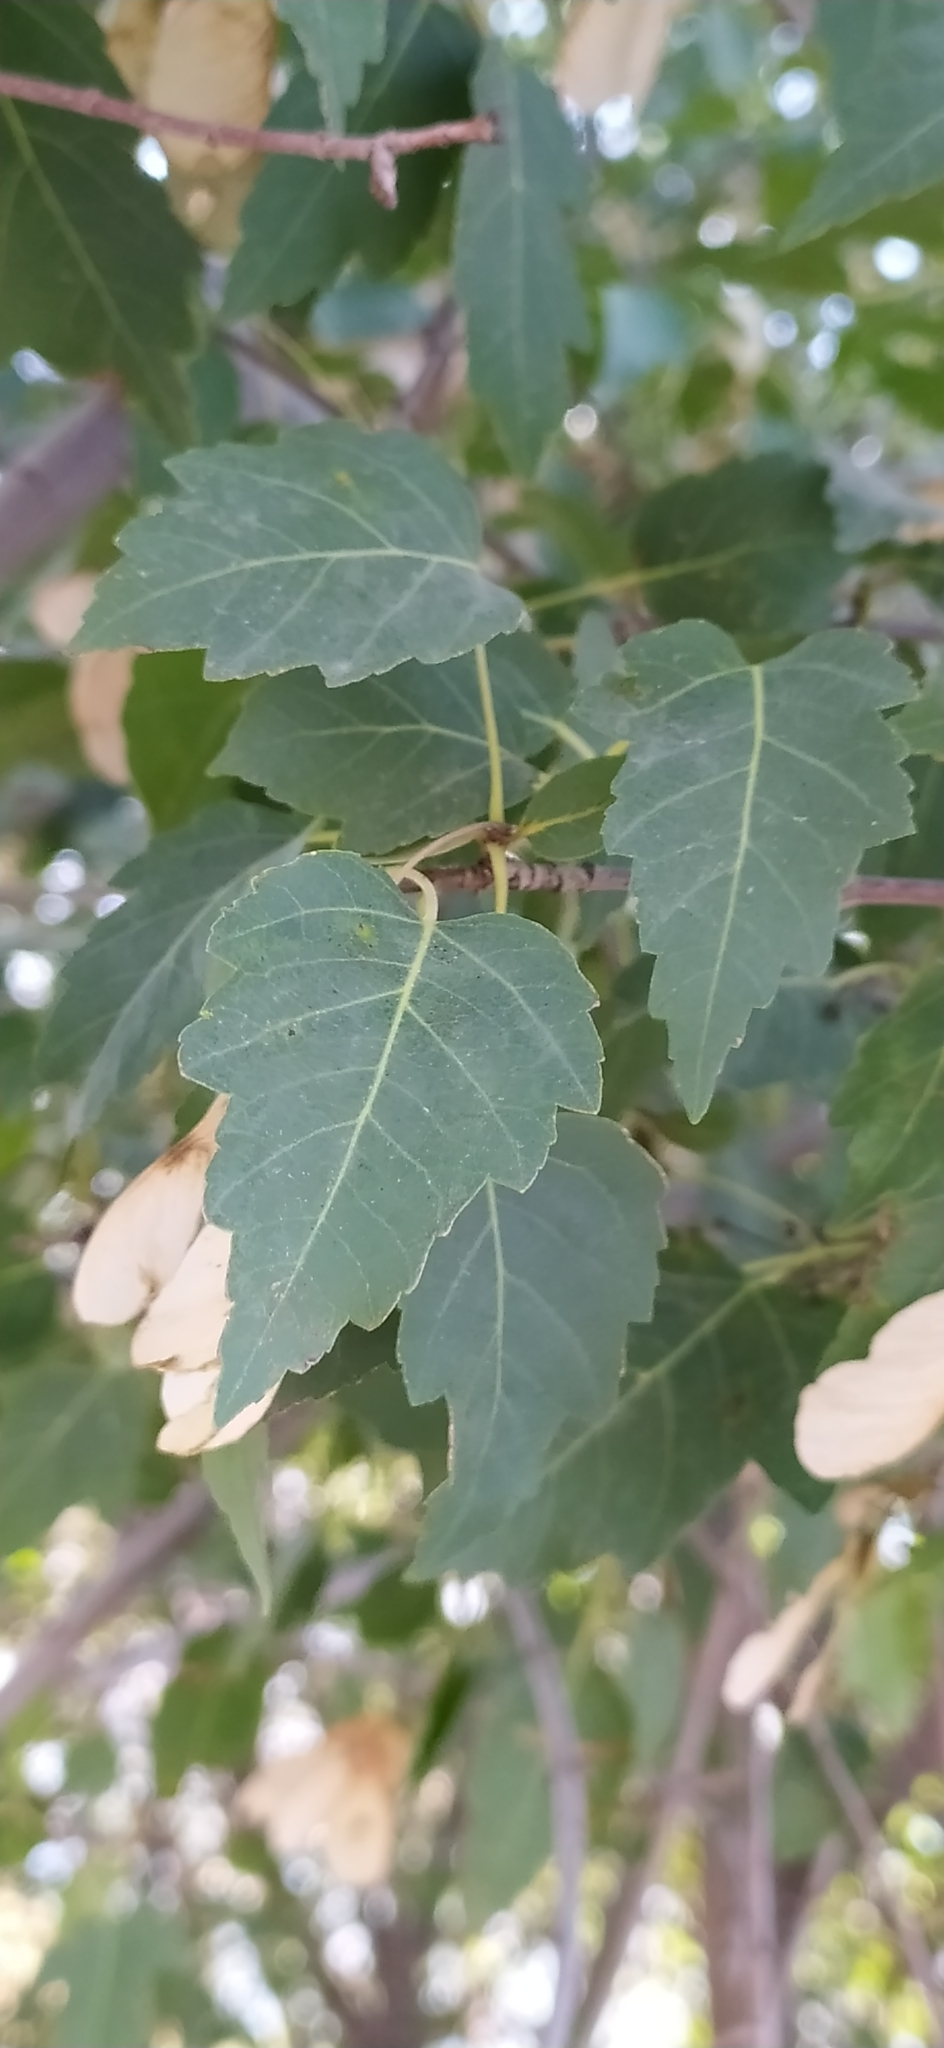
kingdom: Plantae
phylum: Tracheophyta
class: Magnoliopsida
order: Sapindales
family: Sapindaceae
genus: Acer
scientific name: Acer tataricum
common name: Tartar maple
